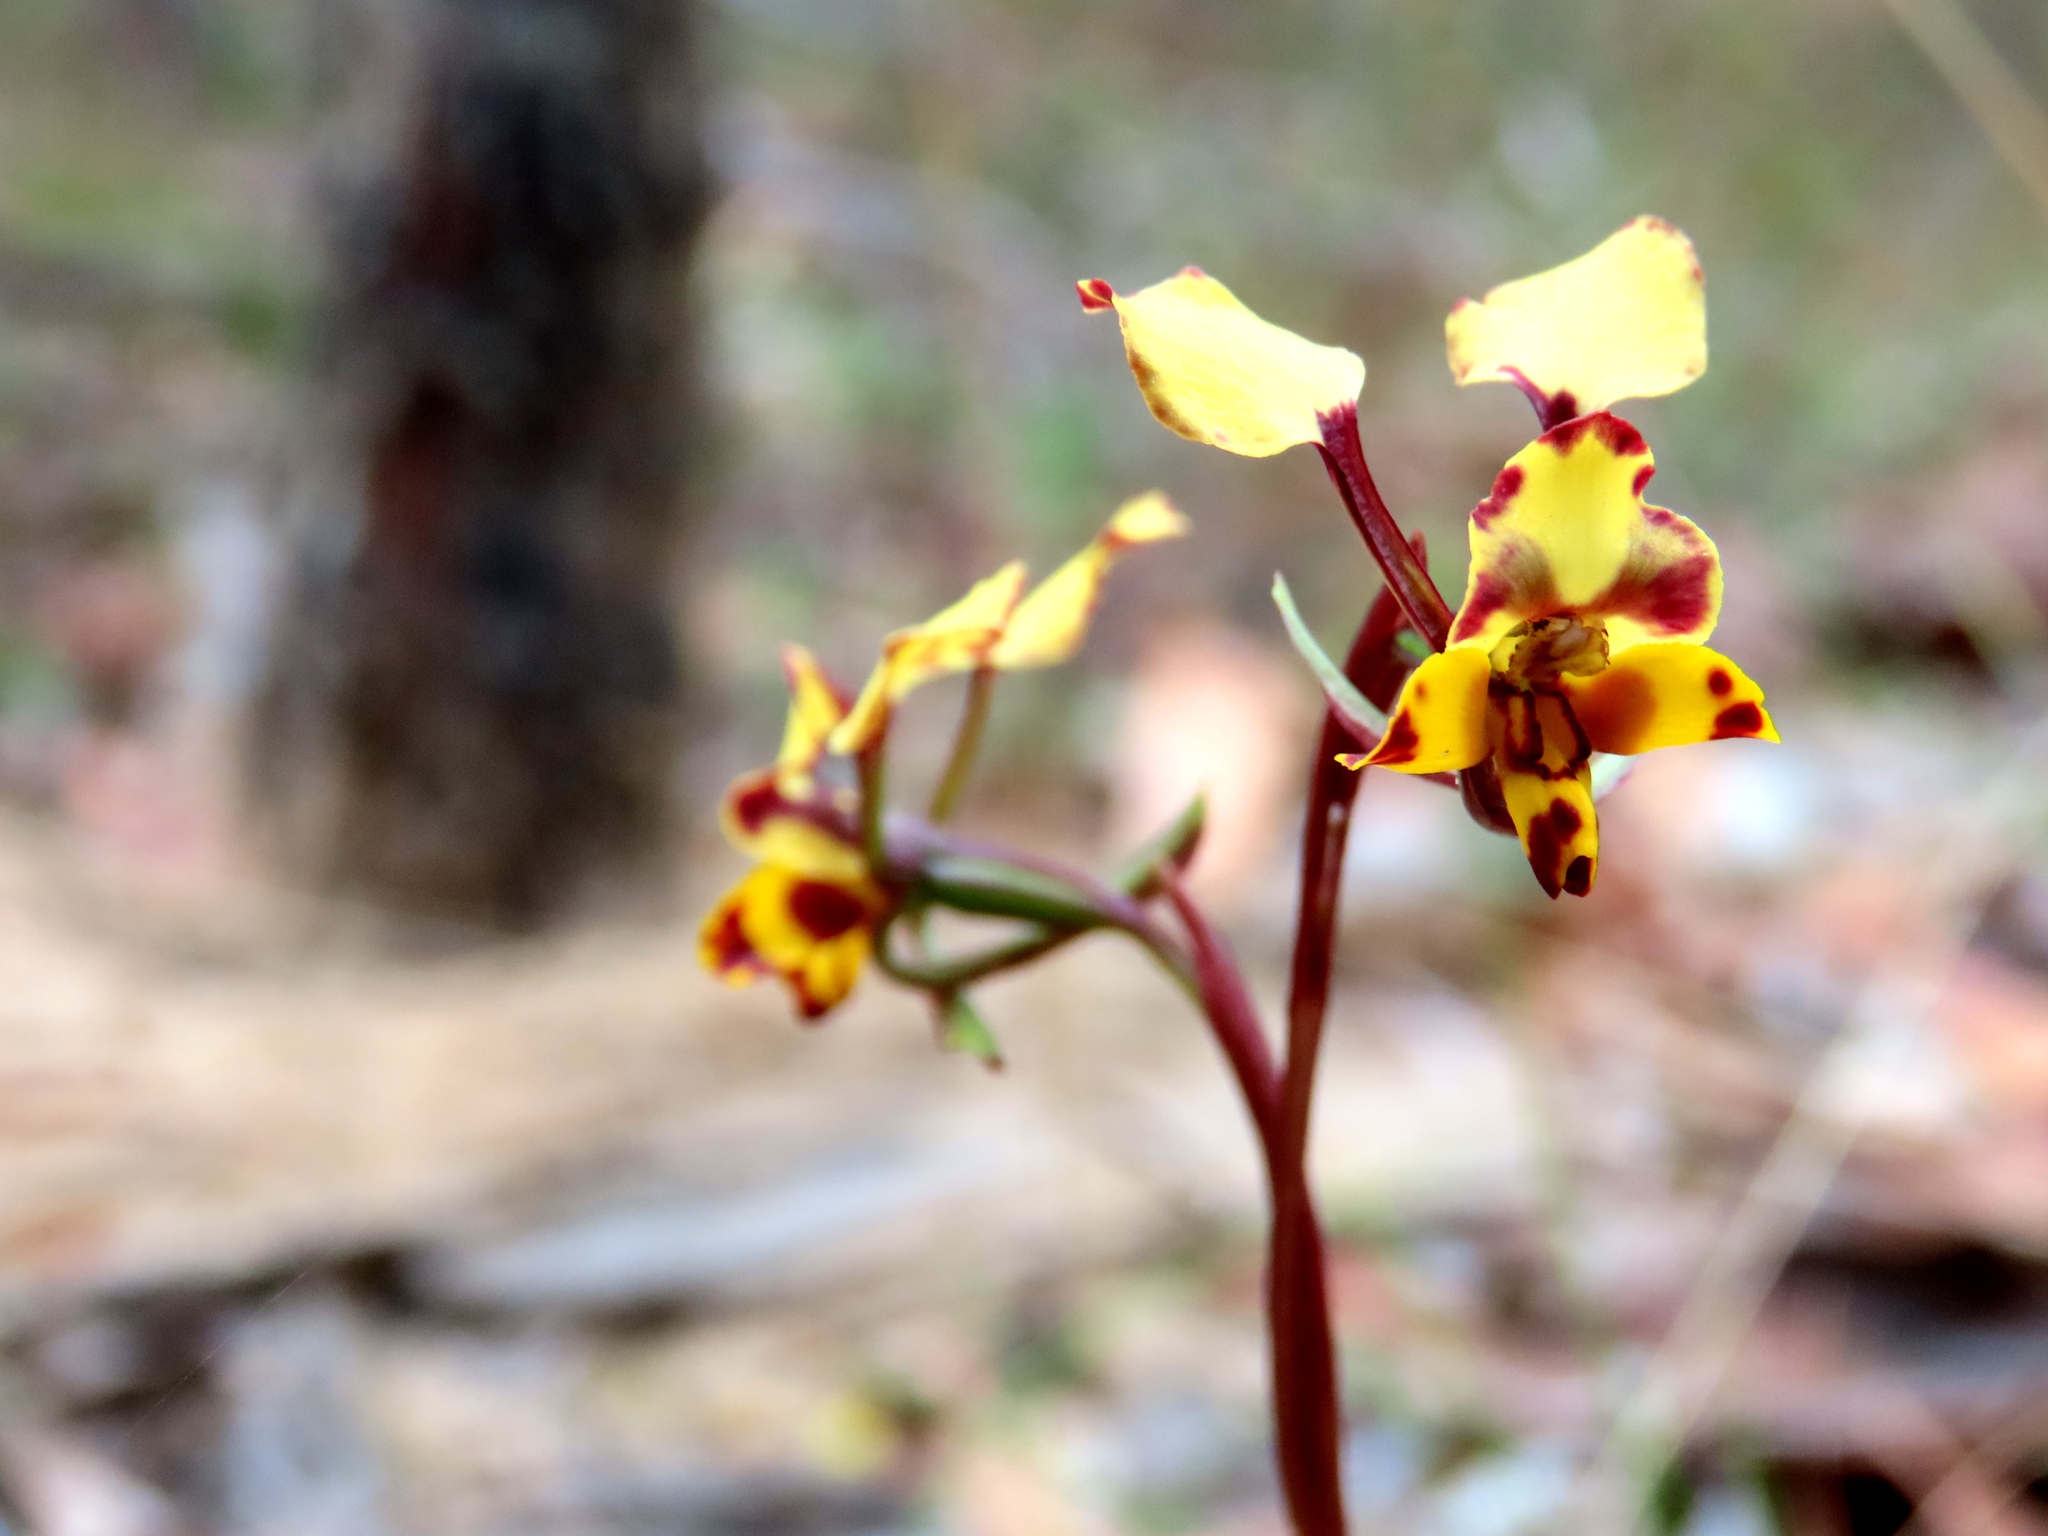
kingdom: Plantae
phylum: Tracheophyta
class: Liliopsida
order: Asparagales
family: Orchidaceae
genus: Diuris
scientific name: Diuris pardina
